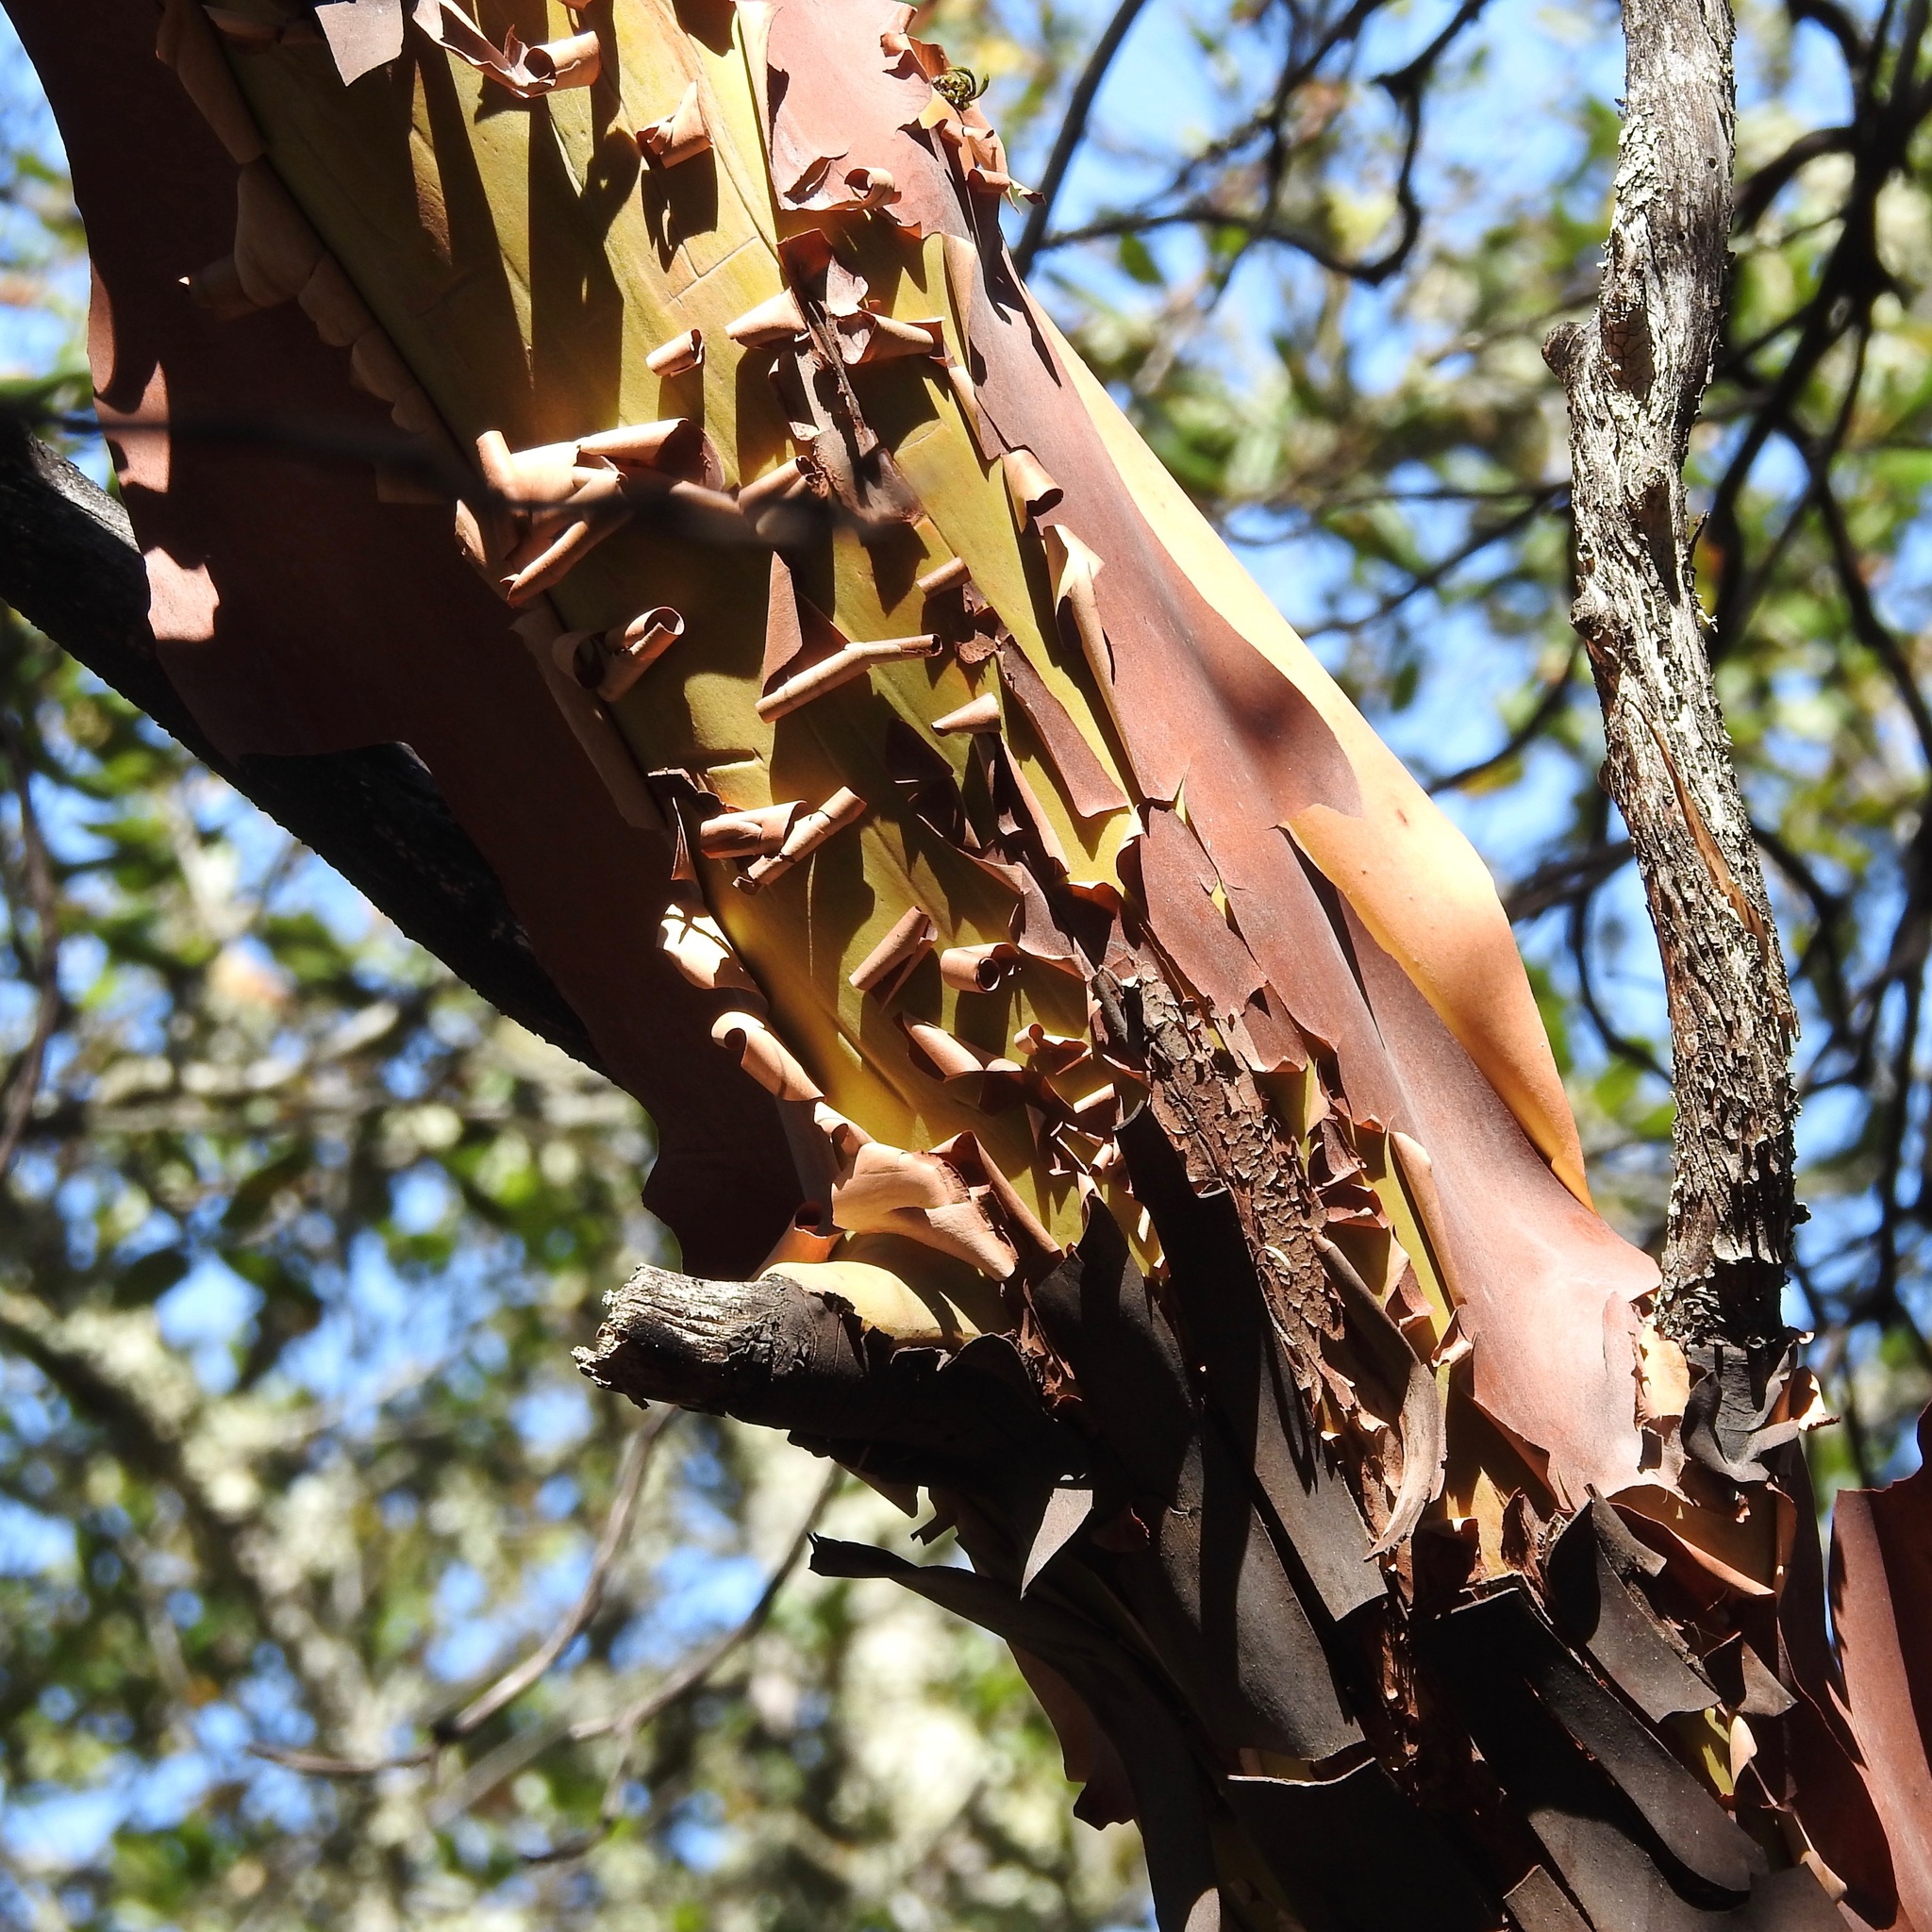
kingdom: Plantae
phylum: Tracheophyta
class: Magnoliopsida
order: Ericales
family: Ericaceae
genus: Arbutus
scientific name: Arbutus menziesii
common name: Pacific madrone
